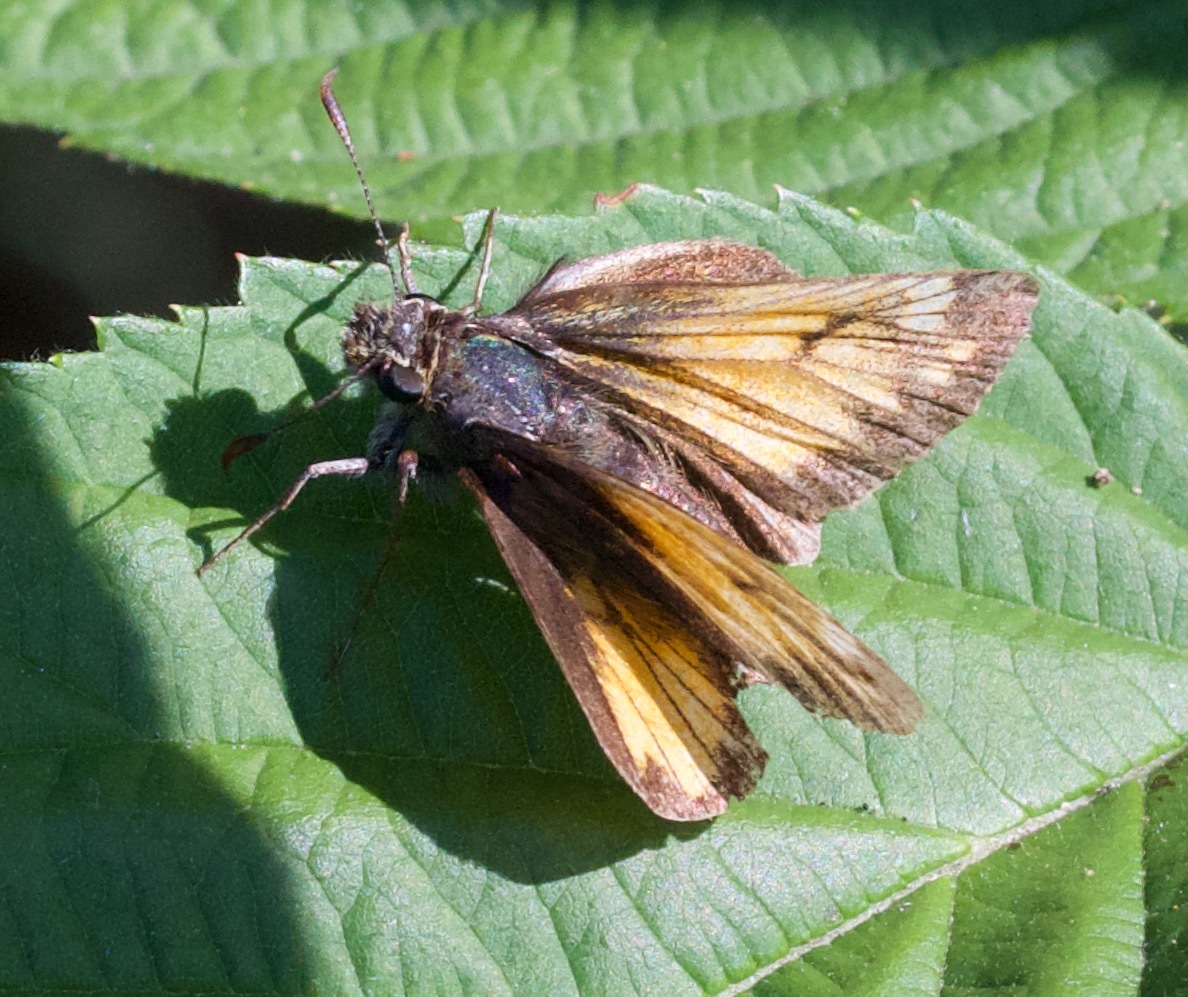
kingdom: Animalia
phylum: Arthropoda
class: Insecta
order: Lepidoptera
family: Hesperiidae
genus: Lon
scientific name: Lon hobomok
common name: Hobomok skipper
